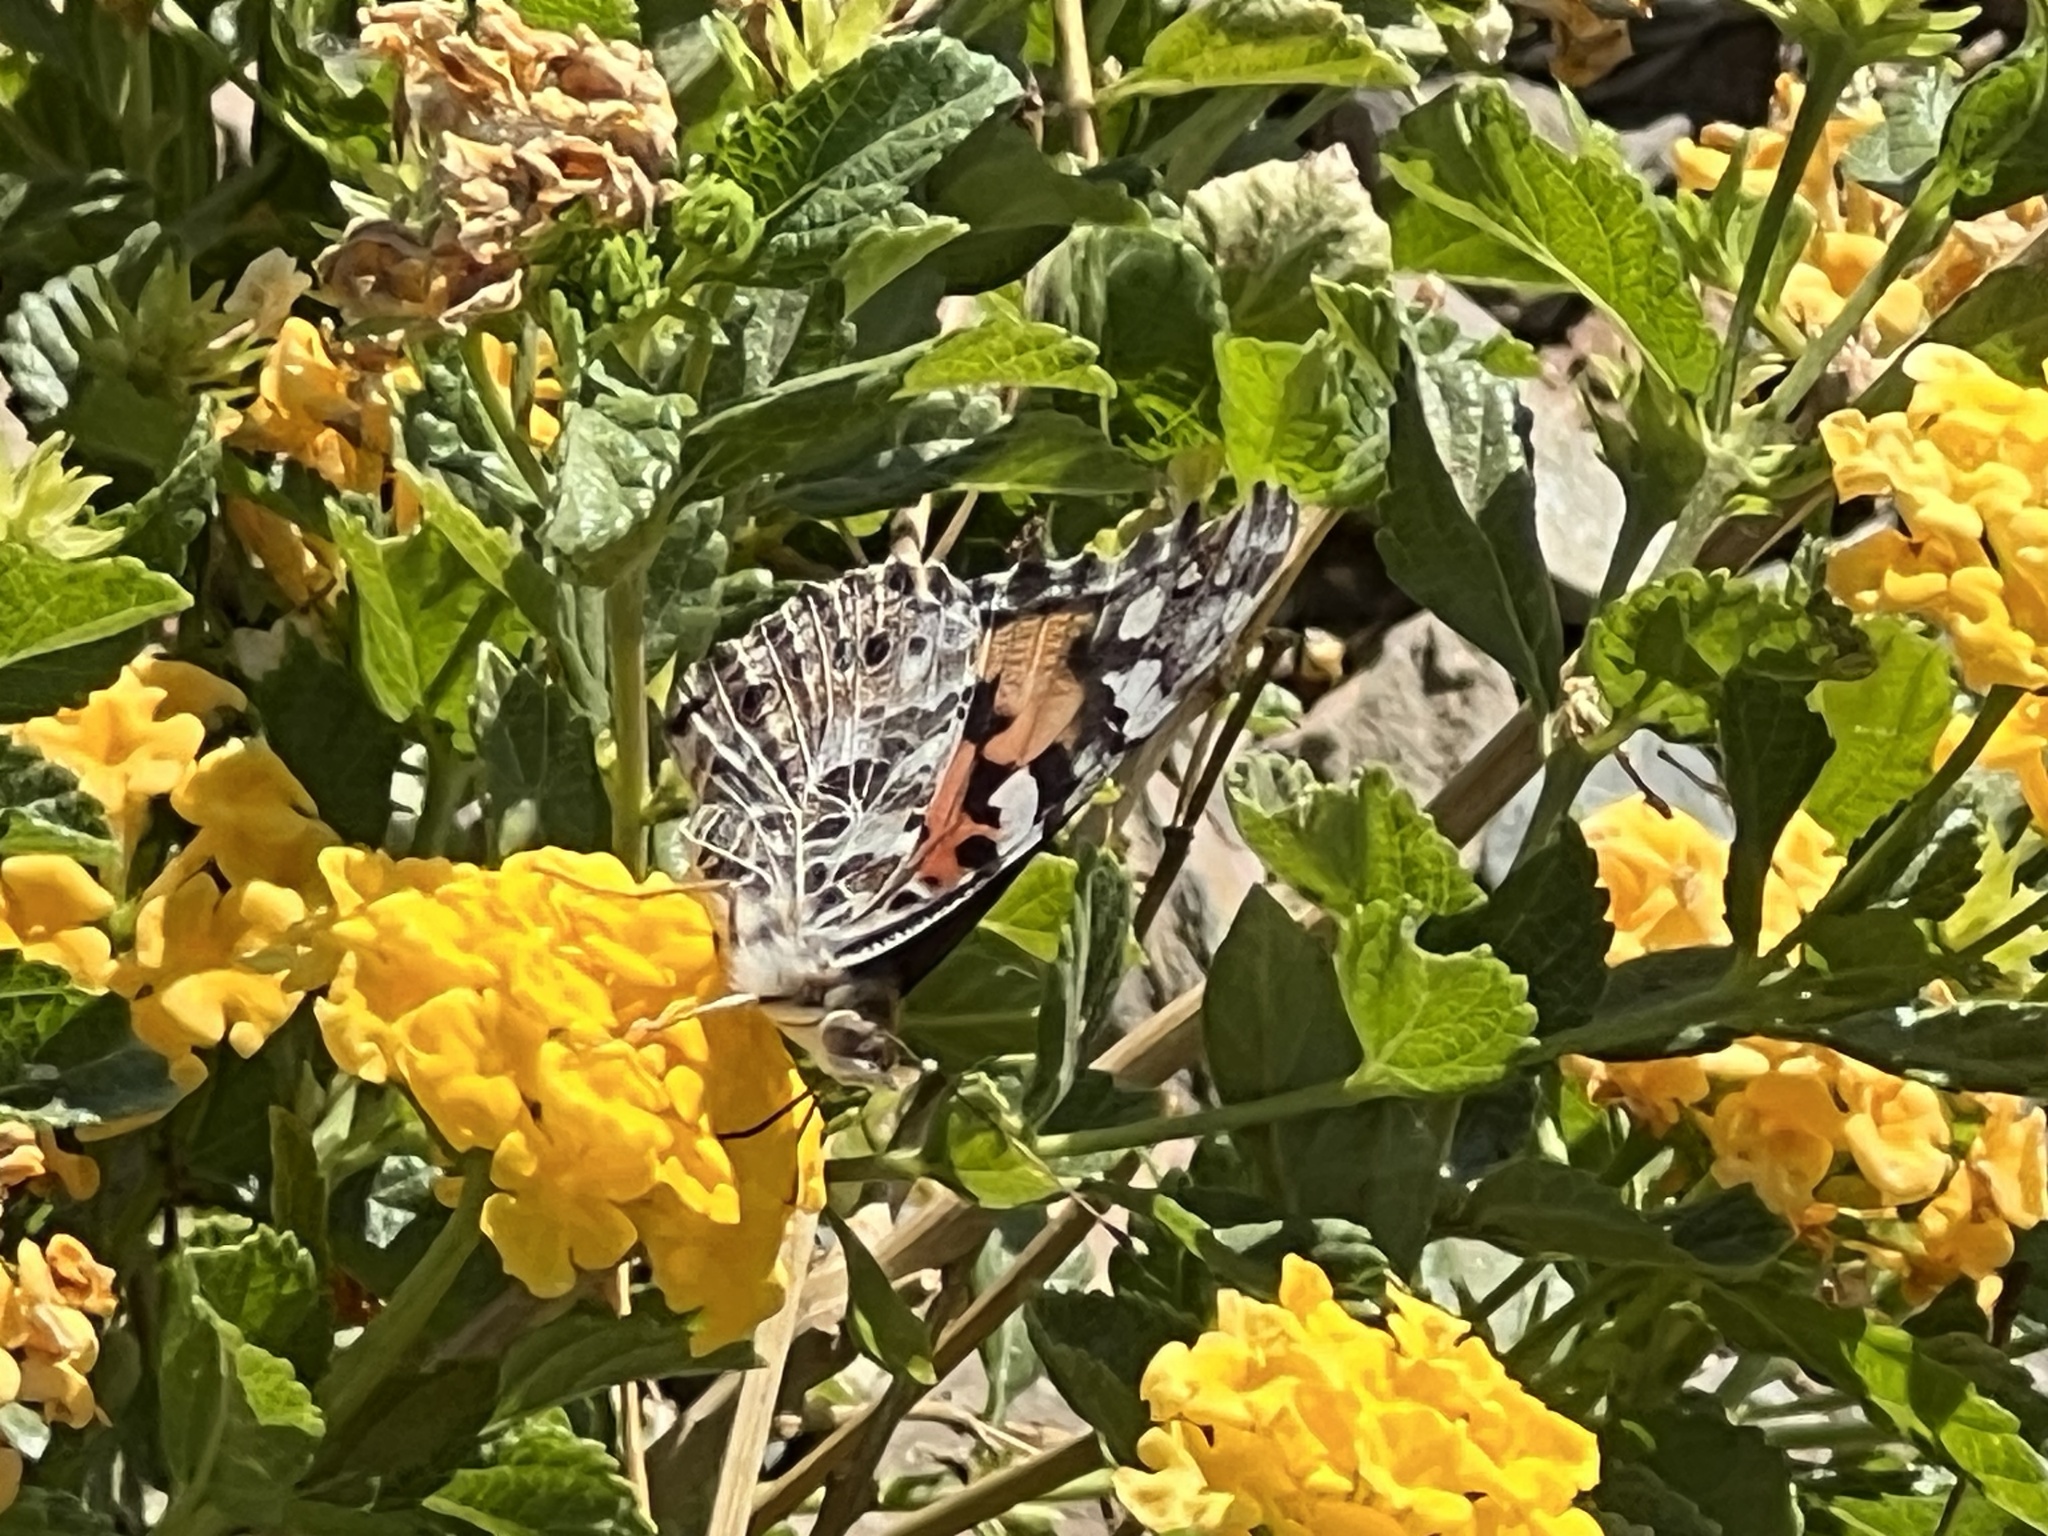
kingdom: Animalia
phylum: Arthropoda
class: Insecta
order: Lepidoptera
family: Nymphalidae
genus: Vanessa
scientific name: Vanessa cardui
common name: Painted lady
